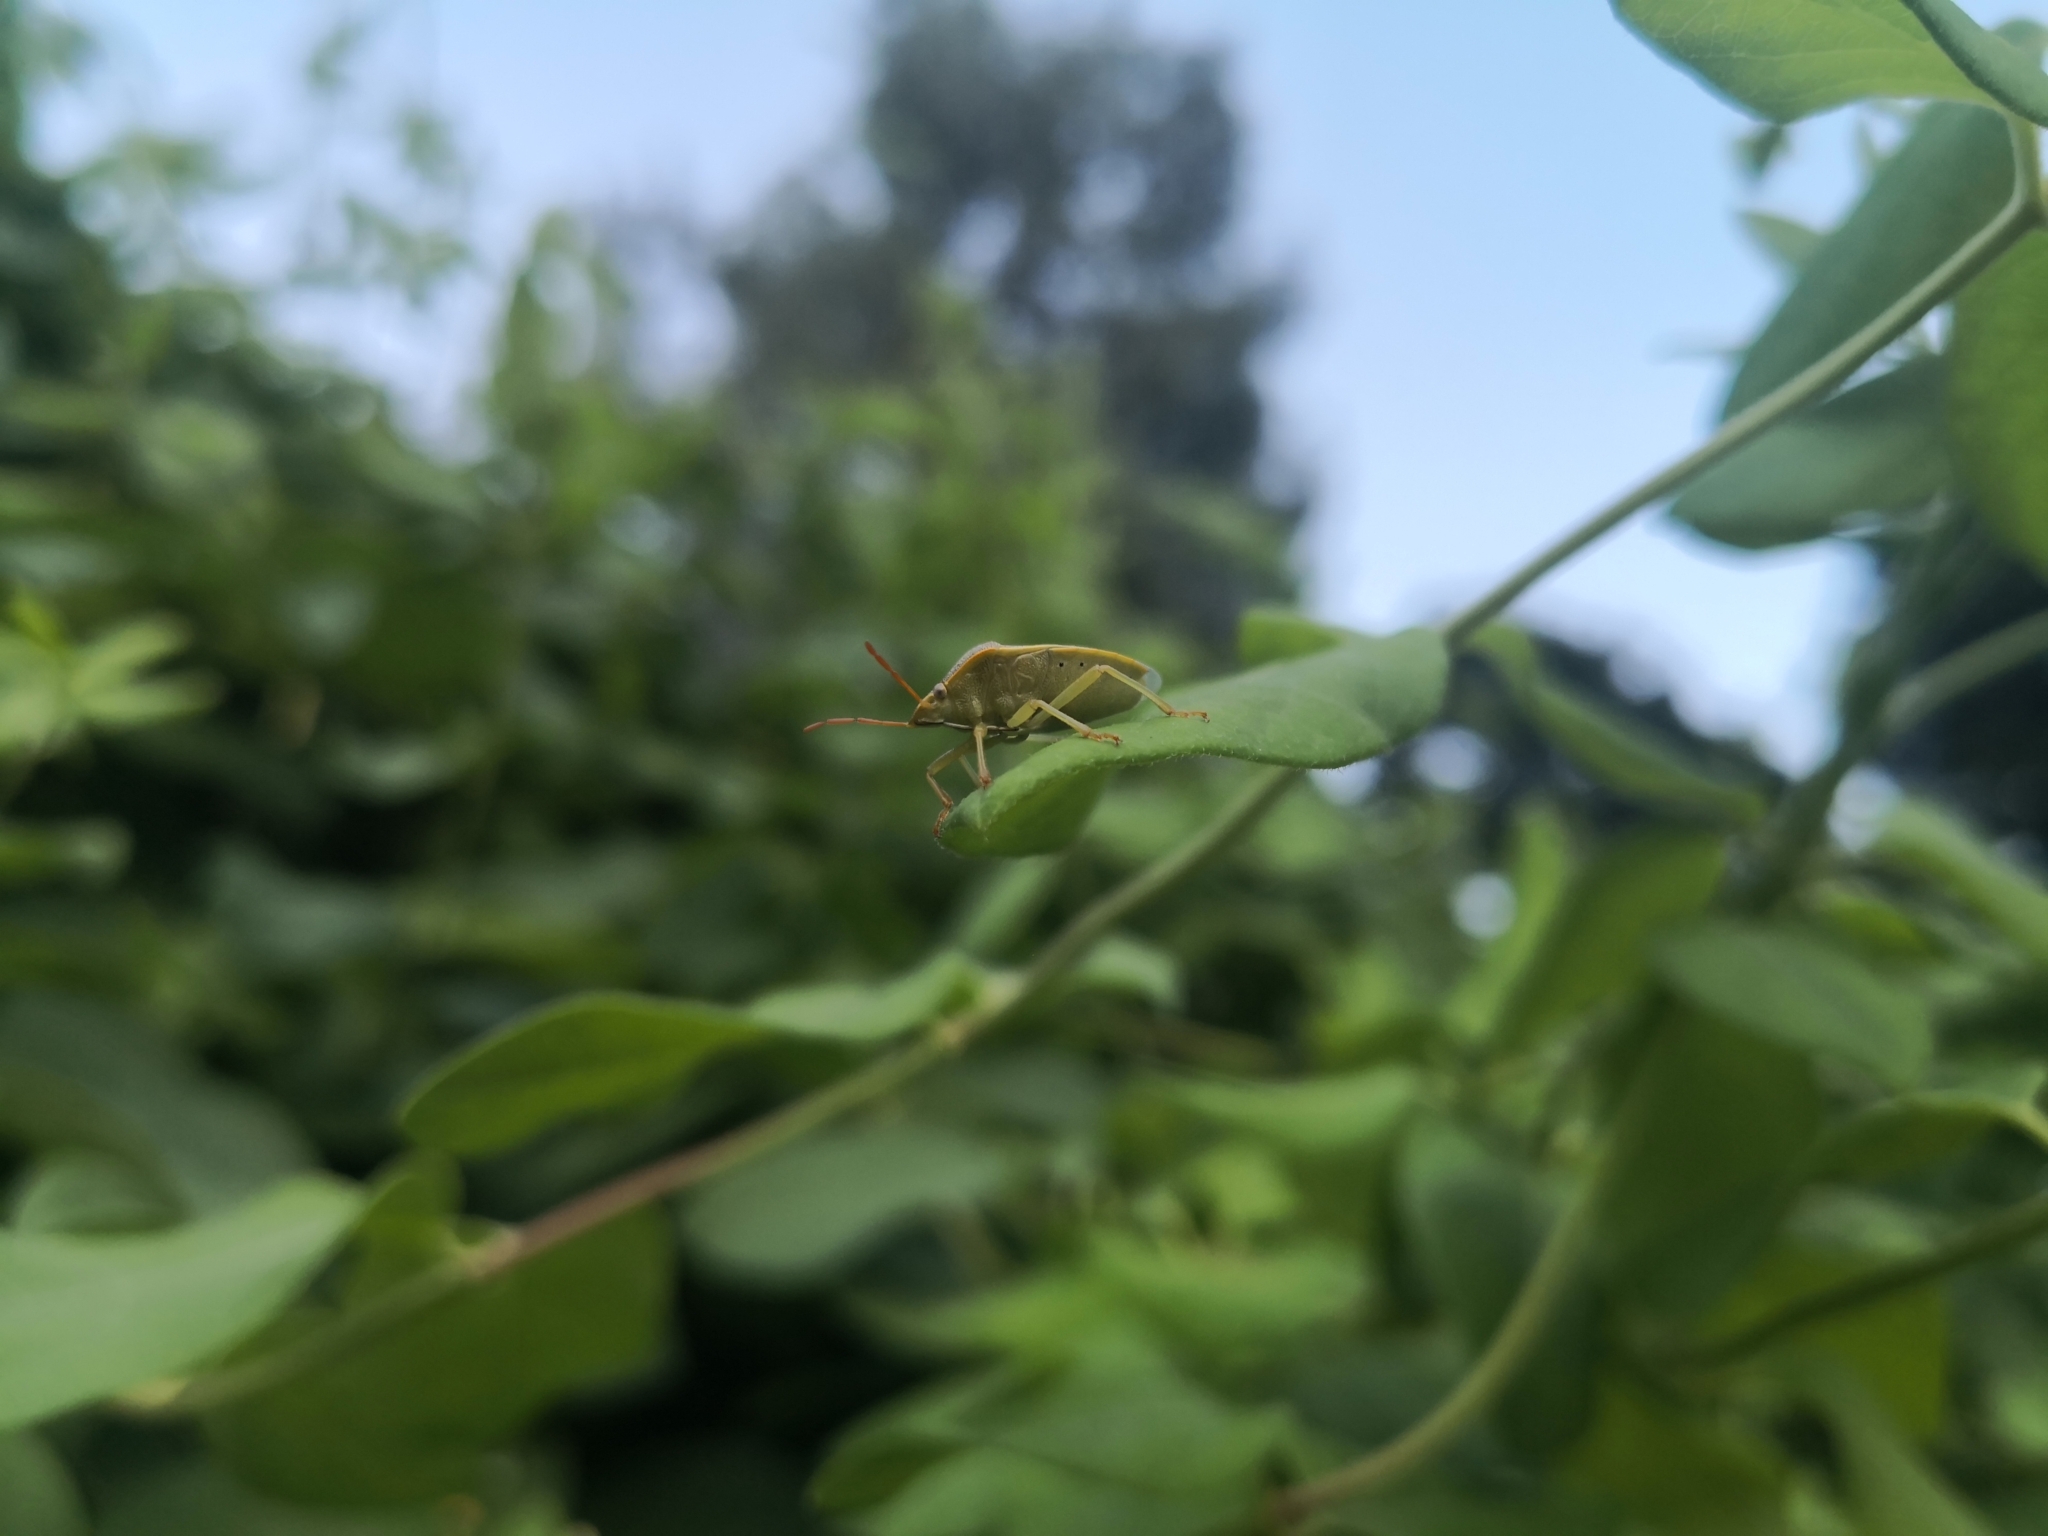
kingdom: Animalia
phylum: Arthropoda
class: Insecta
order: Hemiptera
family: Pentatomidae
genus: Piezodorus
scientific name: Piezodorus lituratus
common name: Stink bug
